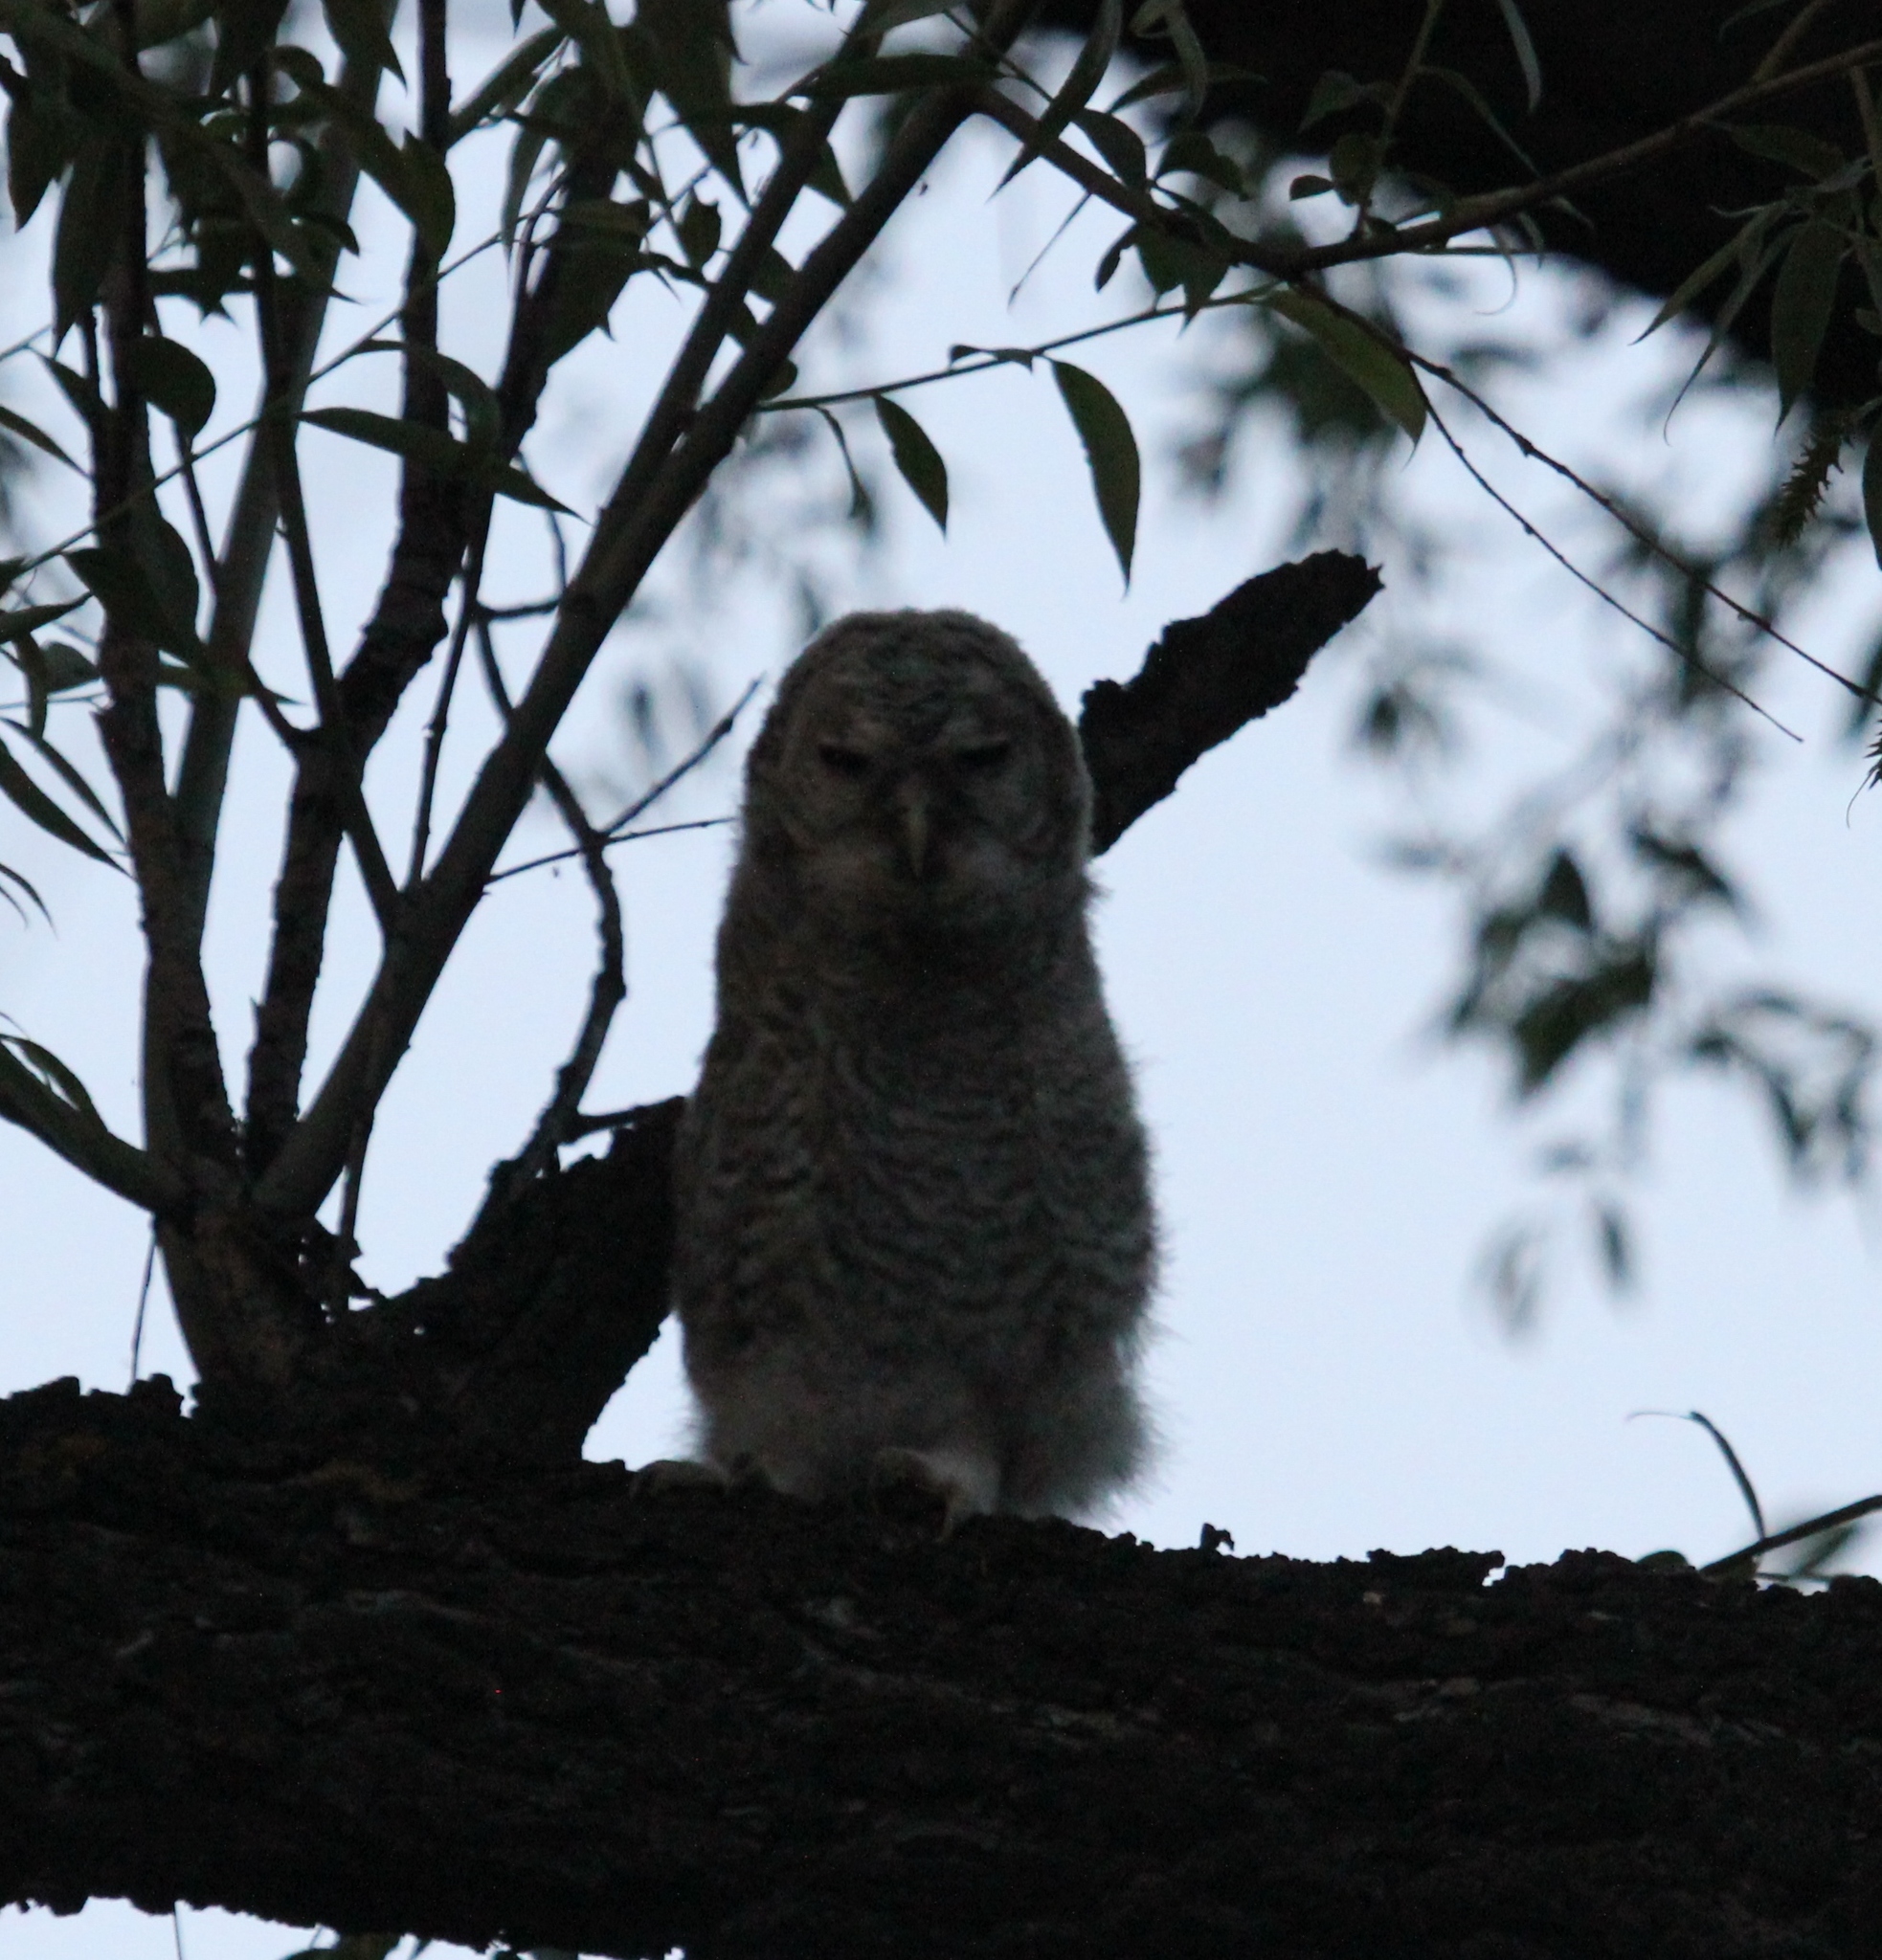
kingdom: Animalia
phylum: Chordata
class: Aves
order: Strigiformes
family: Strigidae
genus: Strix
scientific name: Strix aluco
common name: Tawny owl
